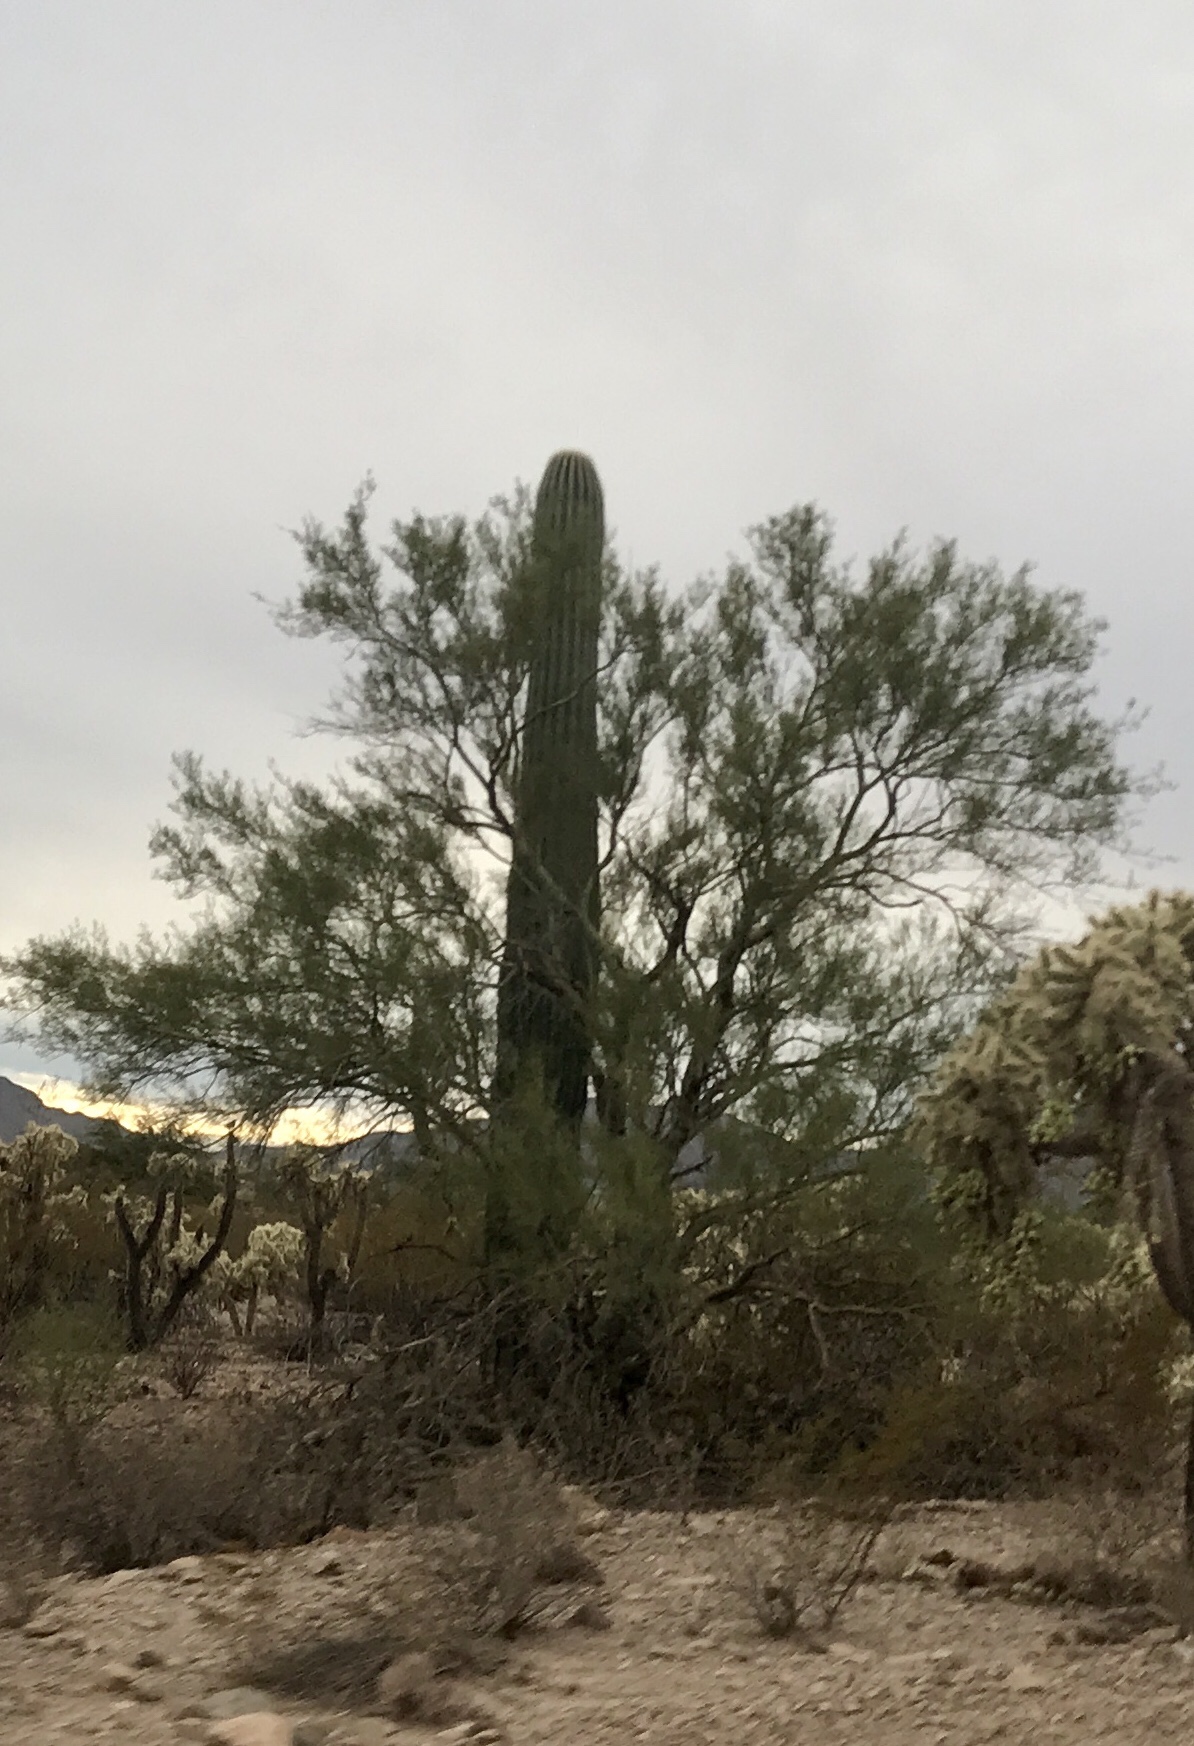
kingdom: Plantae
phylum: Tracheophyta
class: Magnoliopsida
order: Fabales
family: Fabaceae
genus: Parkinsonia
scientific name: Parkinsonia florida
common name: Blue paloverde
